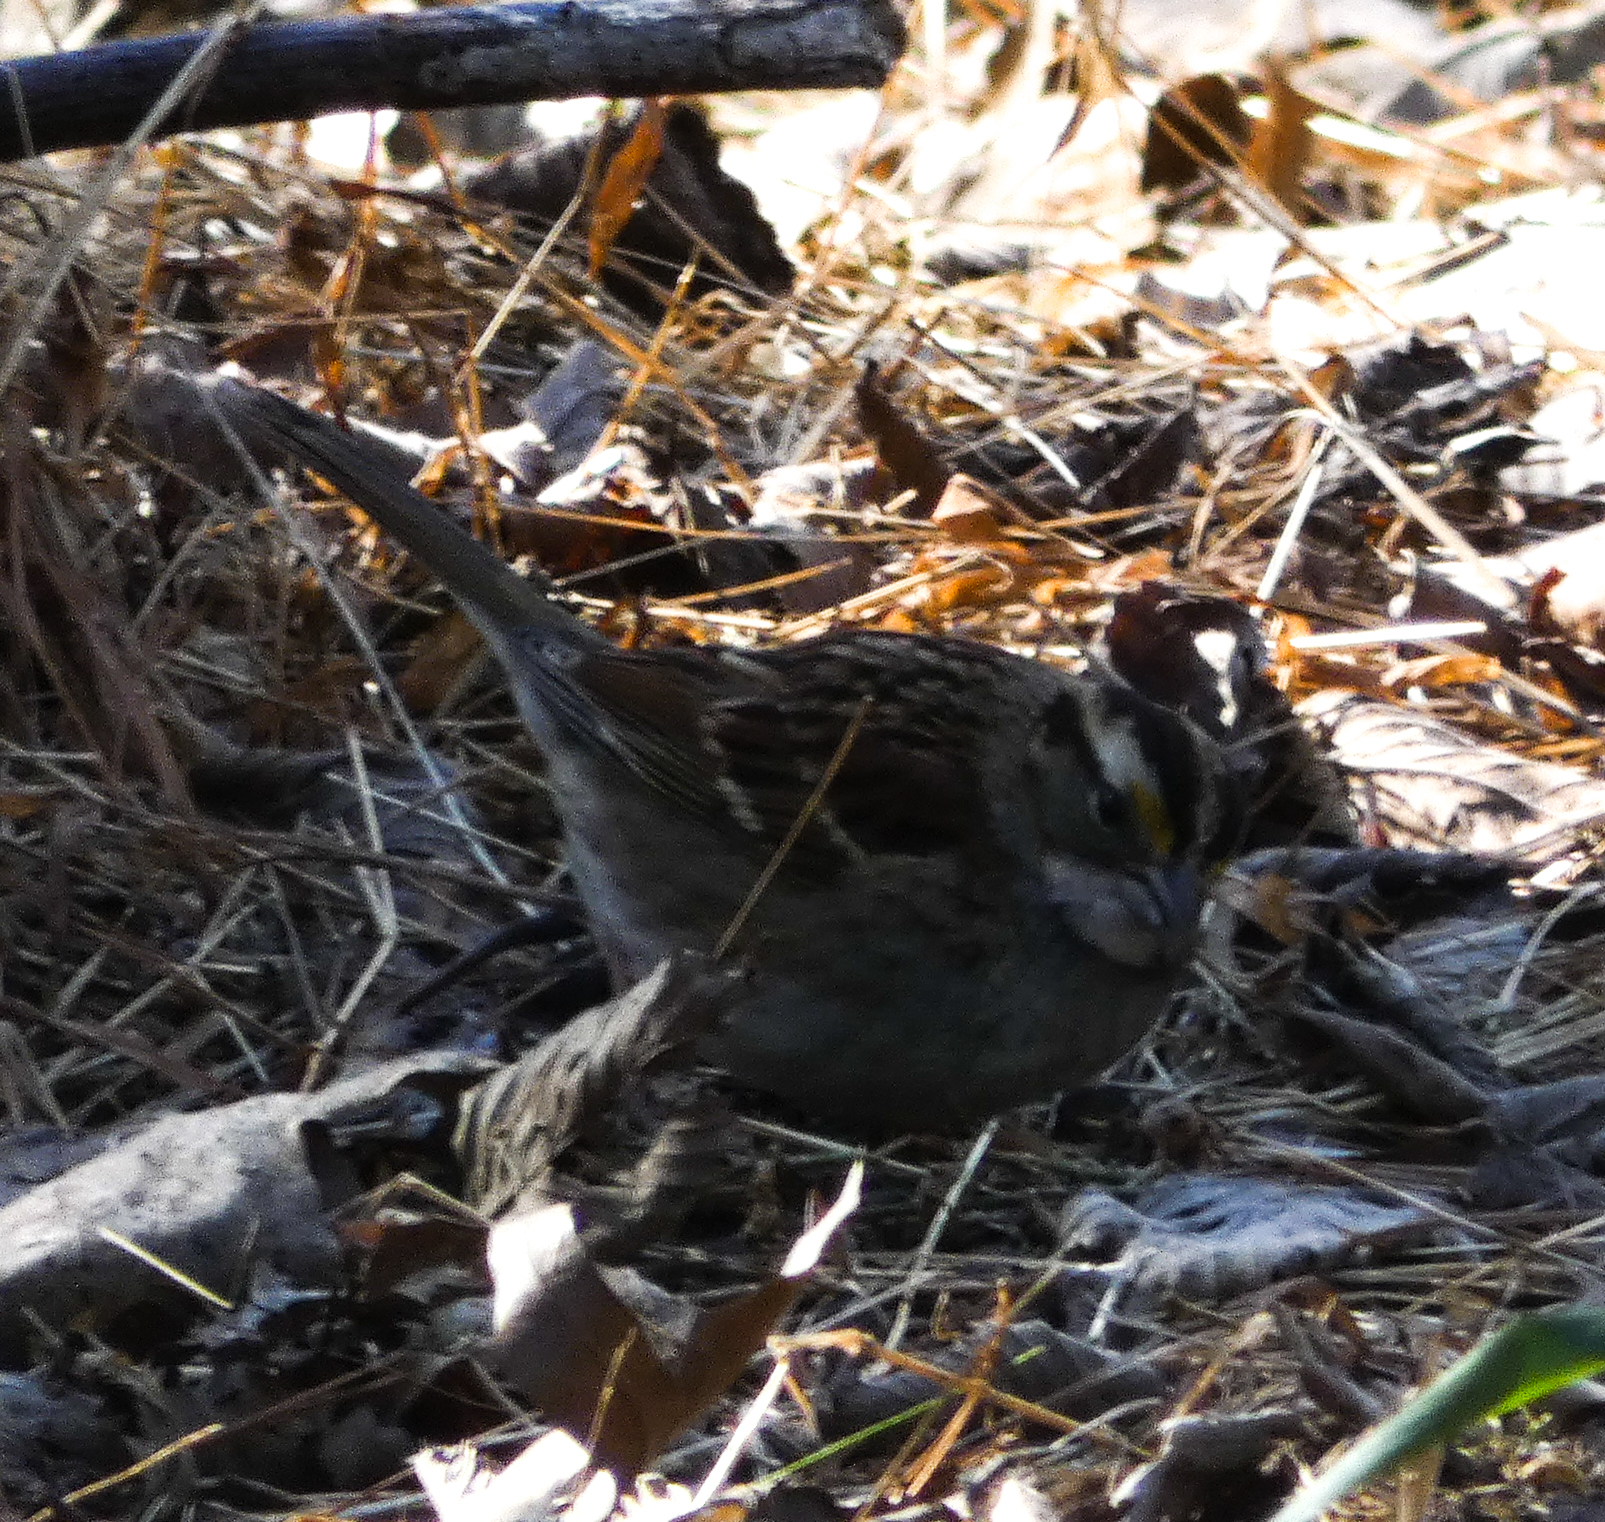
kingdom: Animalia
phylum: Chordata
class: Aves
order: Passeriformes
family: Passerellidae
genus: Zonotrichia
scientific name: Zonotrichia albicollis
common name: White-throated sparrow
